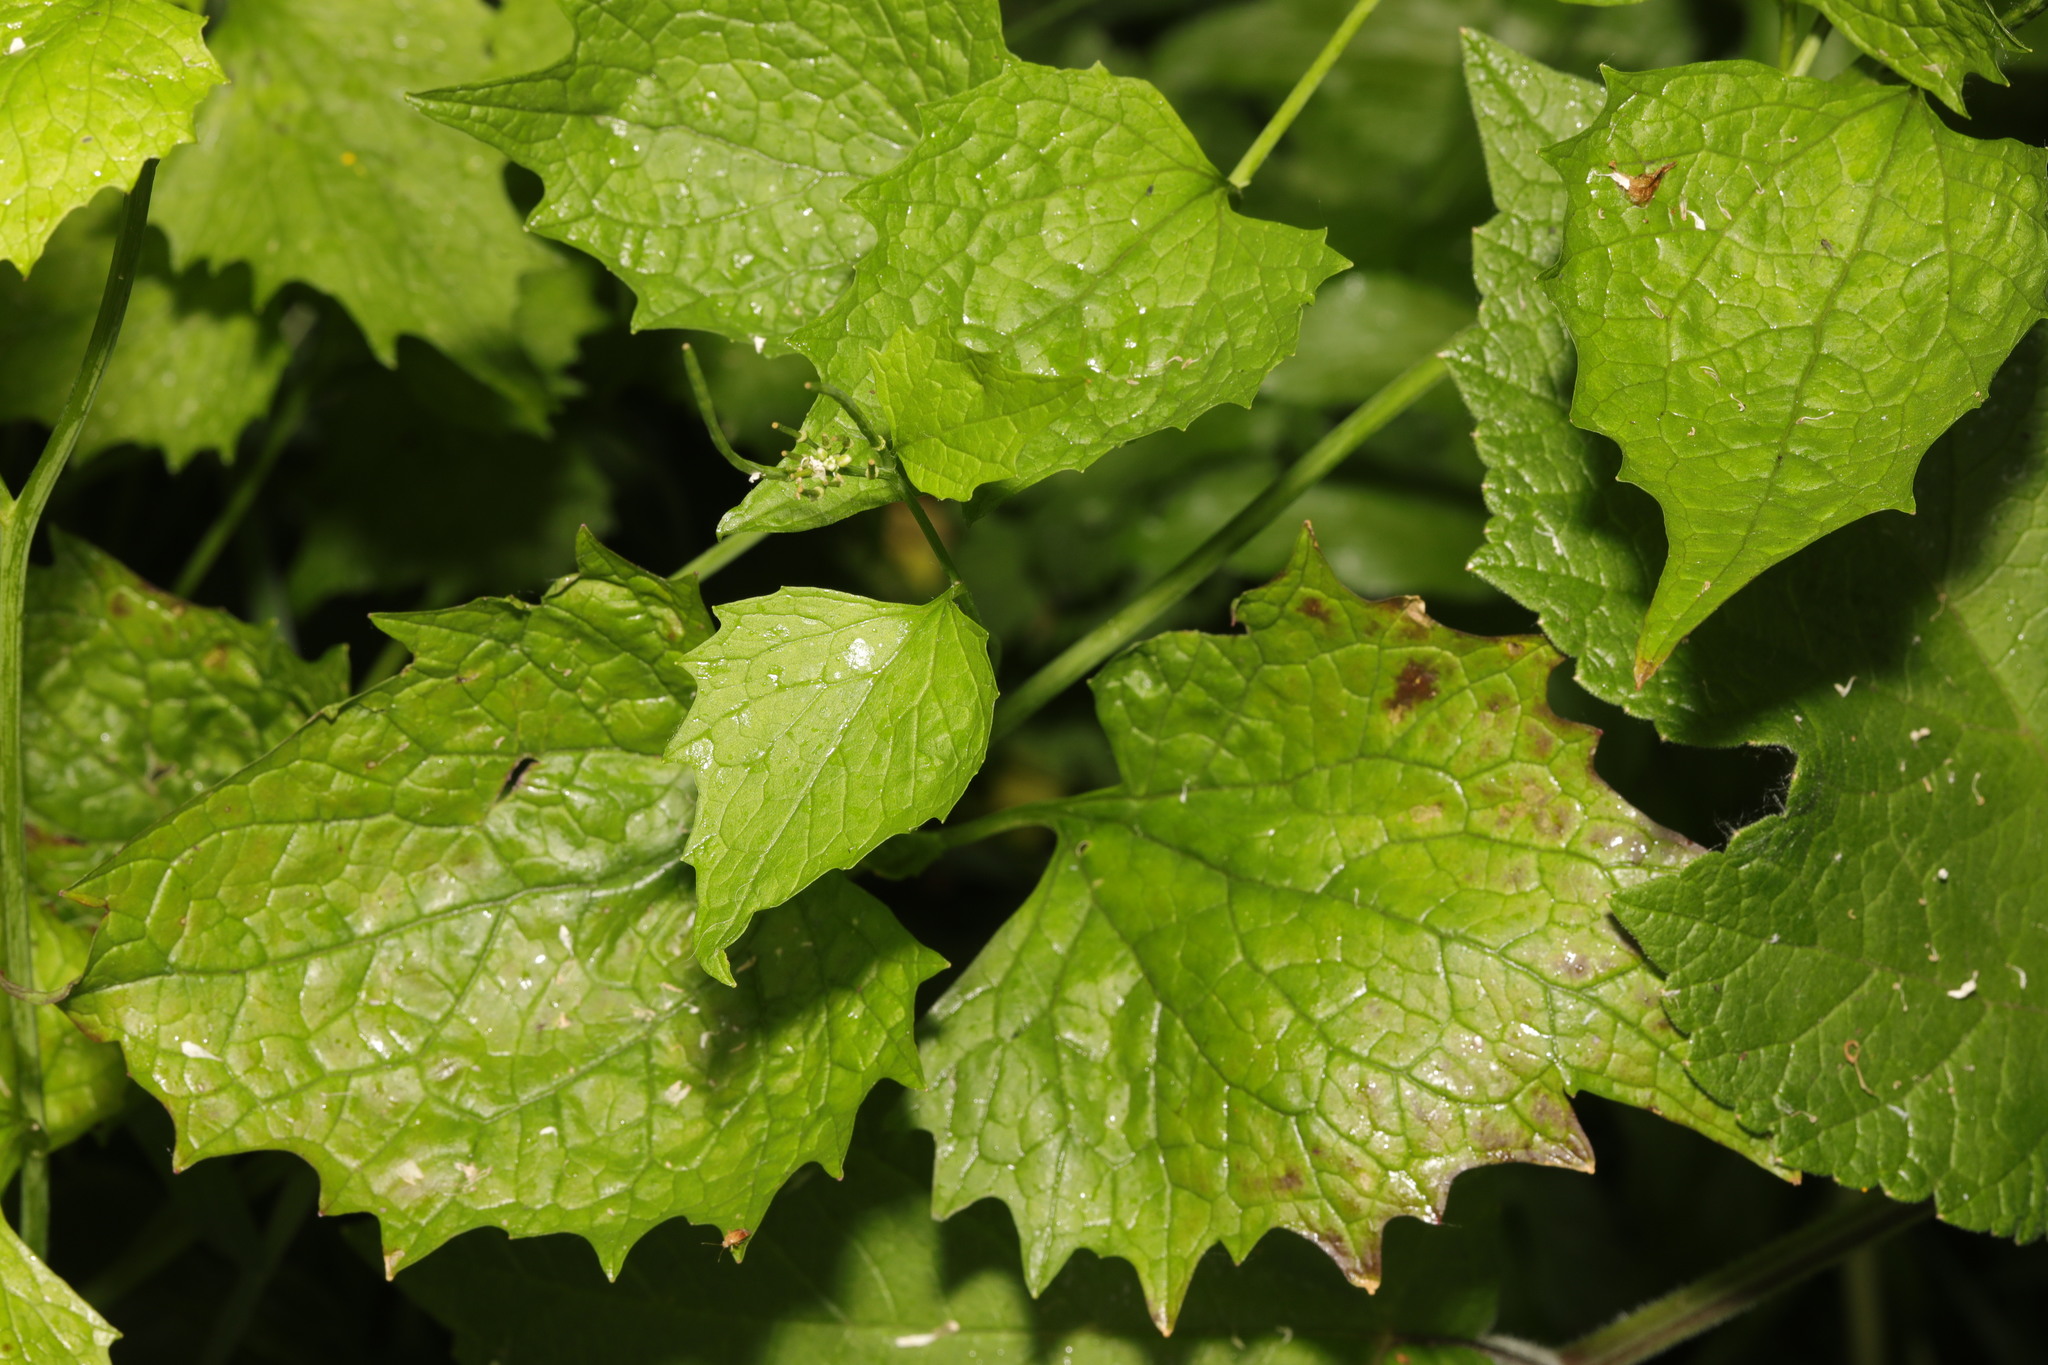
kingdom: Plantae
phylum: Tracheophyta
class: Magnoliopsida
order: Brassicales
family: Brassicaceae
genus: Alliaria
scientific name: Alliaria petiolata
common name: Garlic mustard
